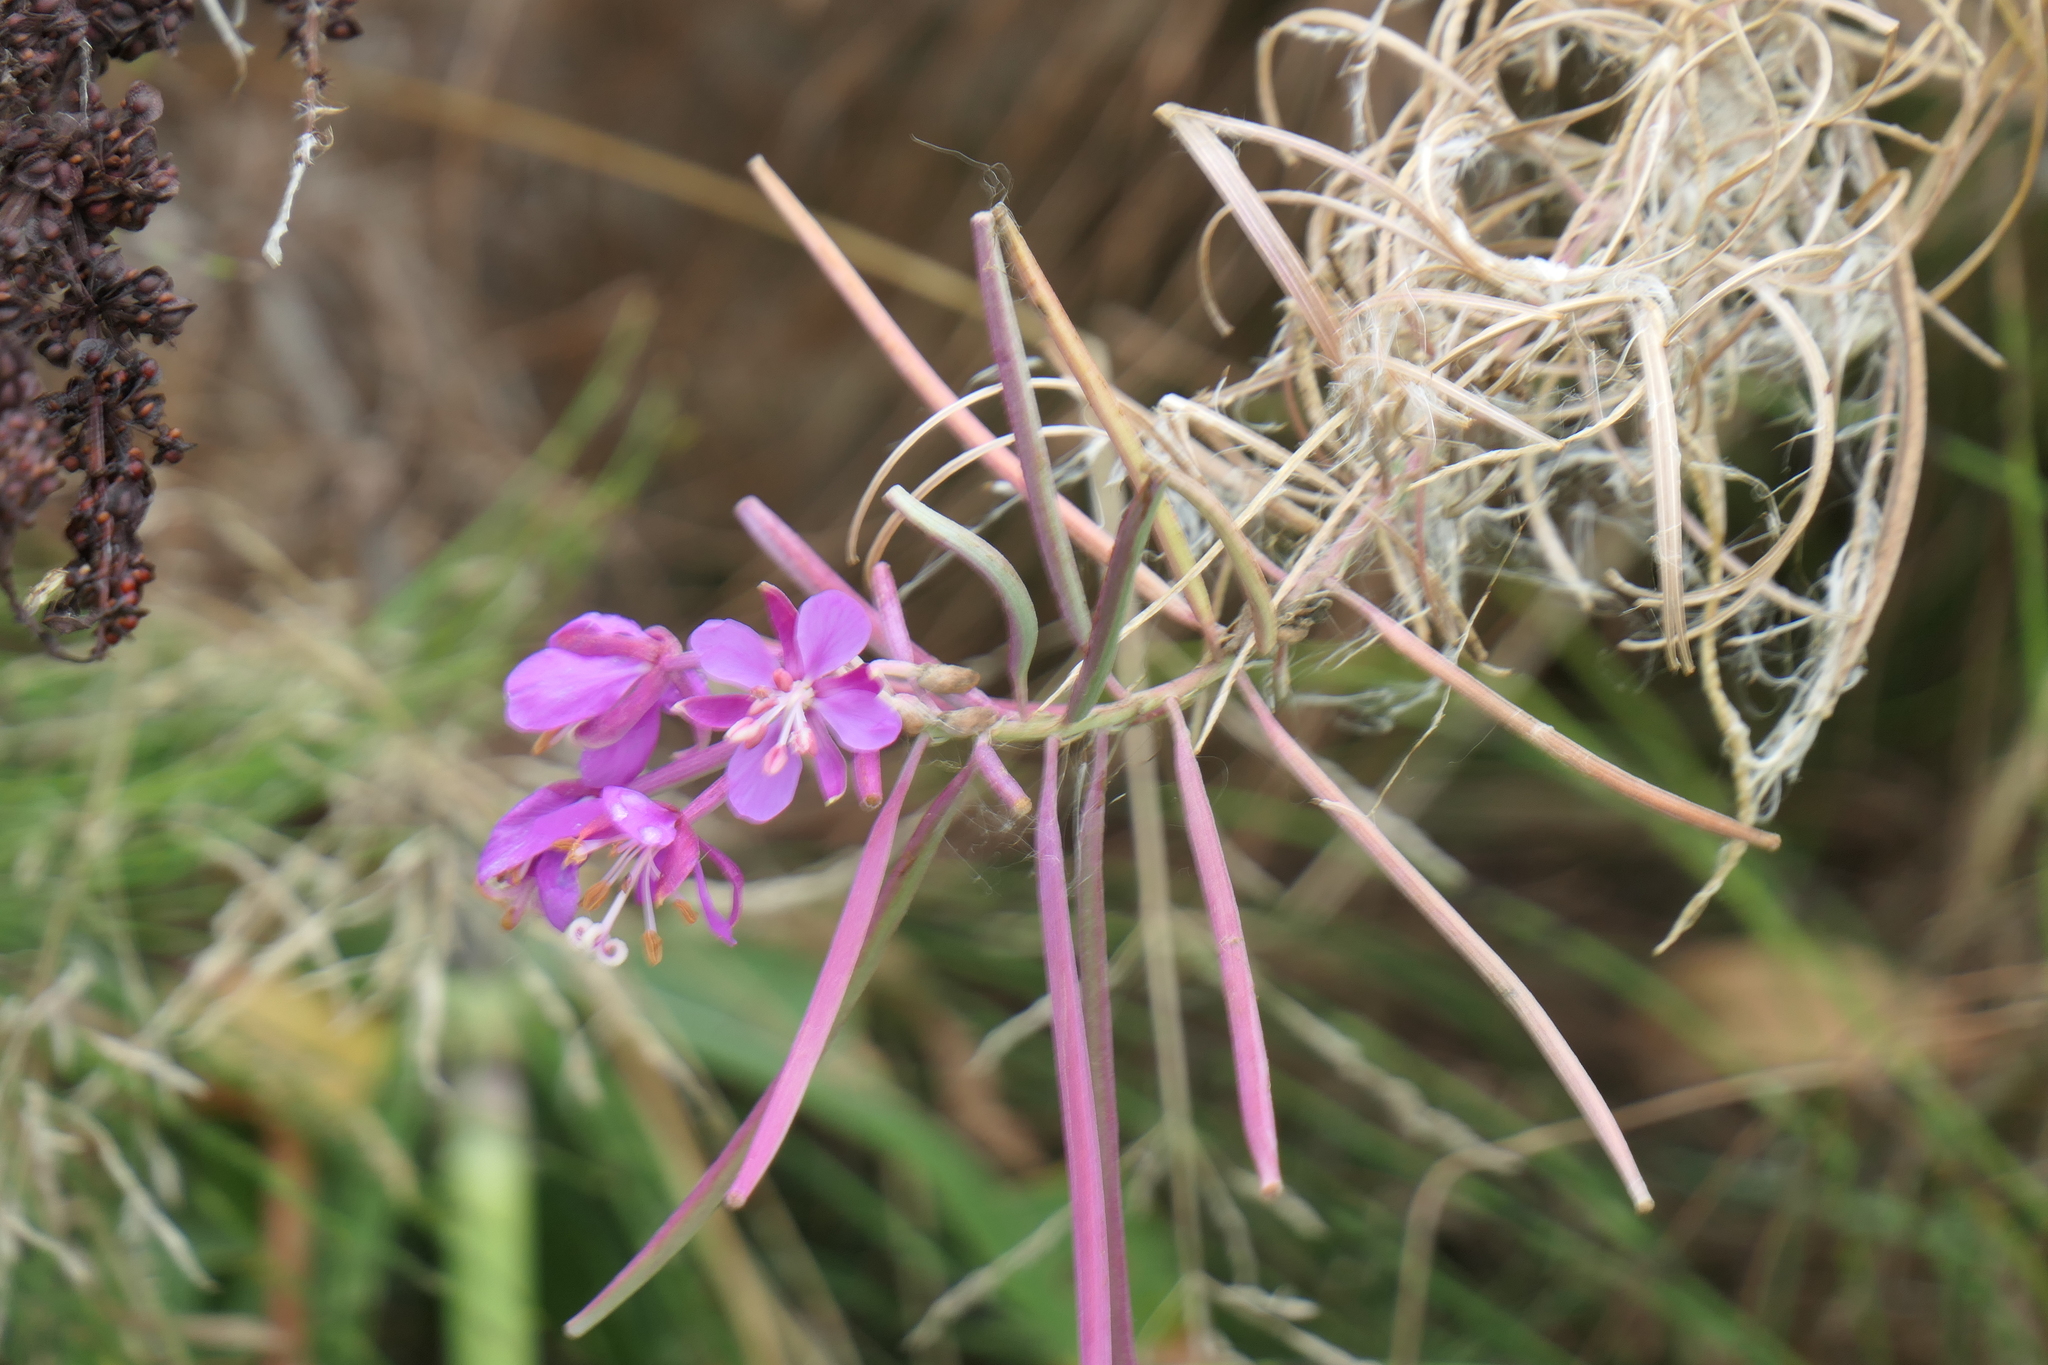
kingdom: Plantae
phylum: Tracheophyta
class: Magnoliopsida
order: Myrtales
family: Onagraceae
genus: Chamaenerion
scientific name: Chamaenerion angustifolium
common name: Fireweed
